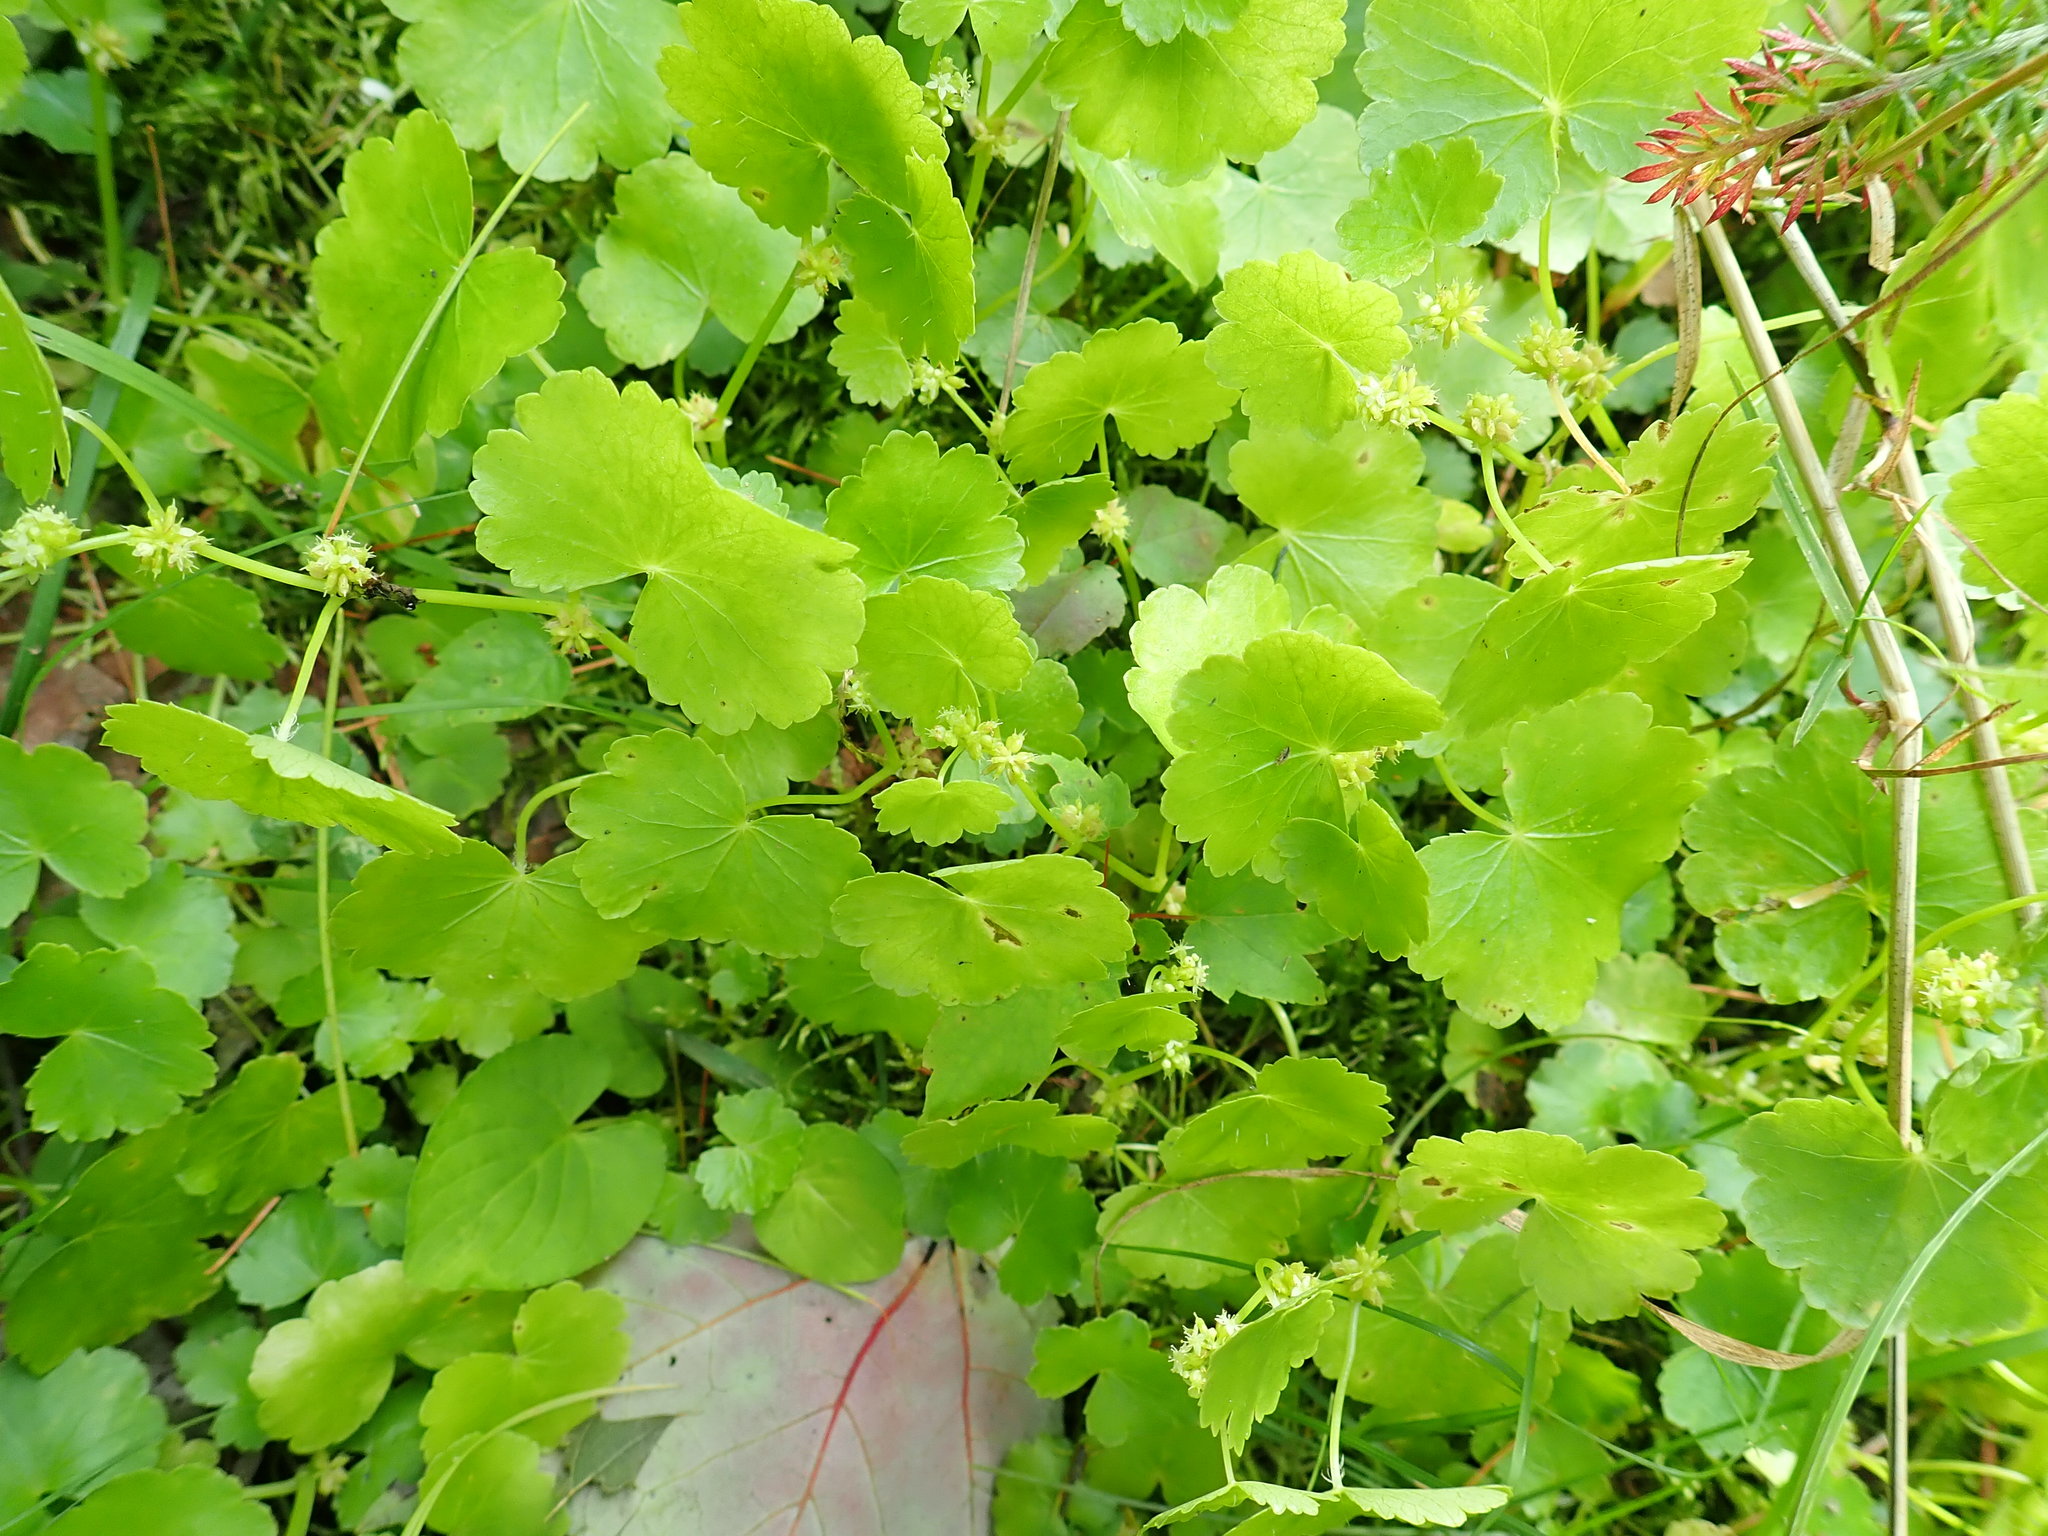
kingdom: Plantae
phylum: Tracheophyta
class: Magnoliopsida
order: Apiales
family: Araliaceae
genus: Hydrocotyle
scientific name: Hydrocotyle americana
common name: American water-pennywort
